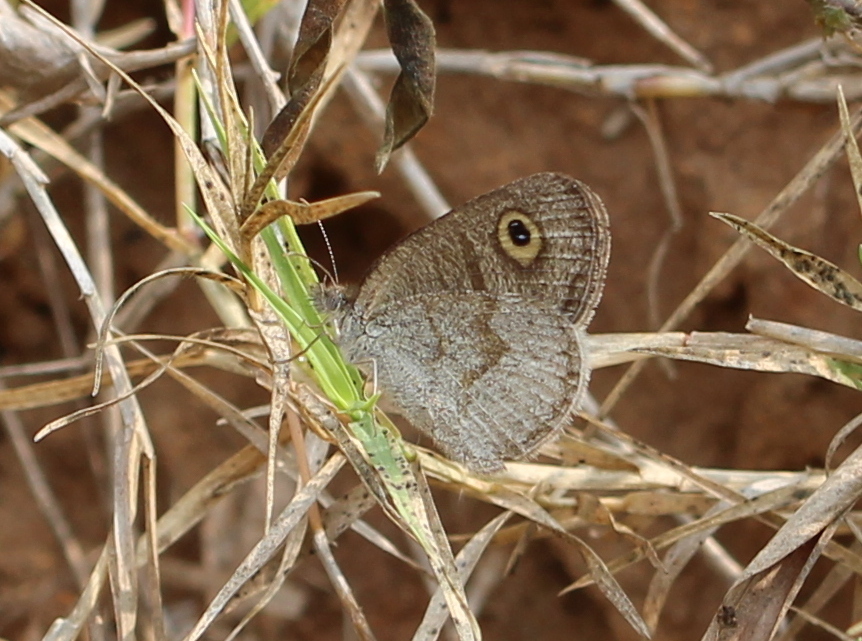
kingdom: Animalia
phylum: Arthropoda
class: Insecta
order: Lepidoptera
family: Nymphalidae
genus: Ypthima
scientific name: Ypthima huebneri
